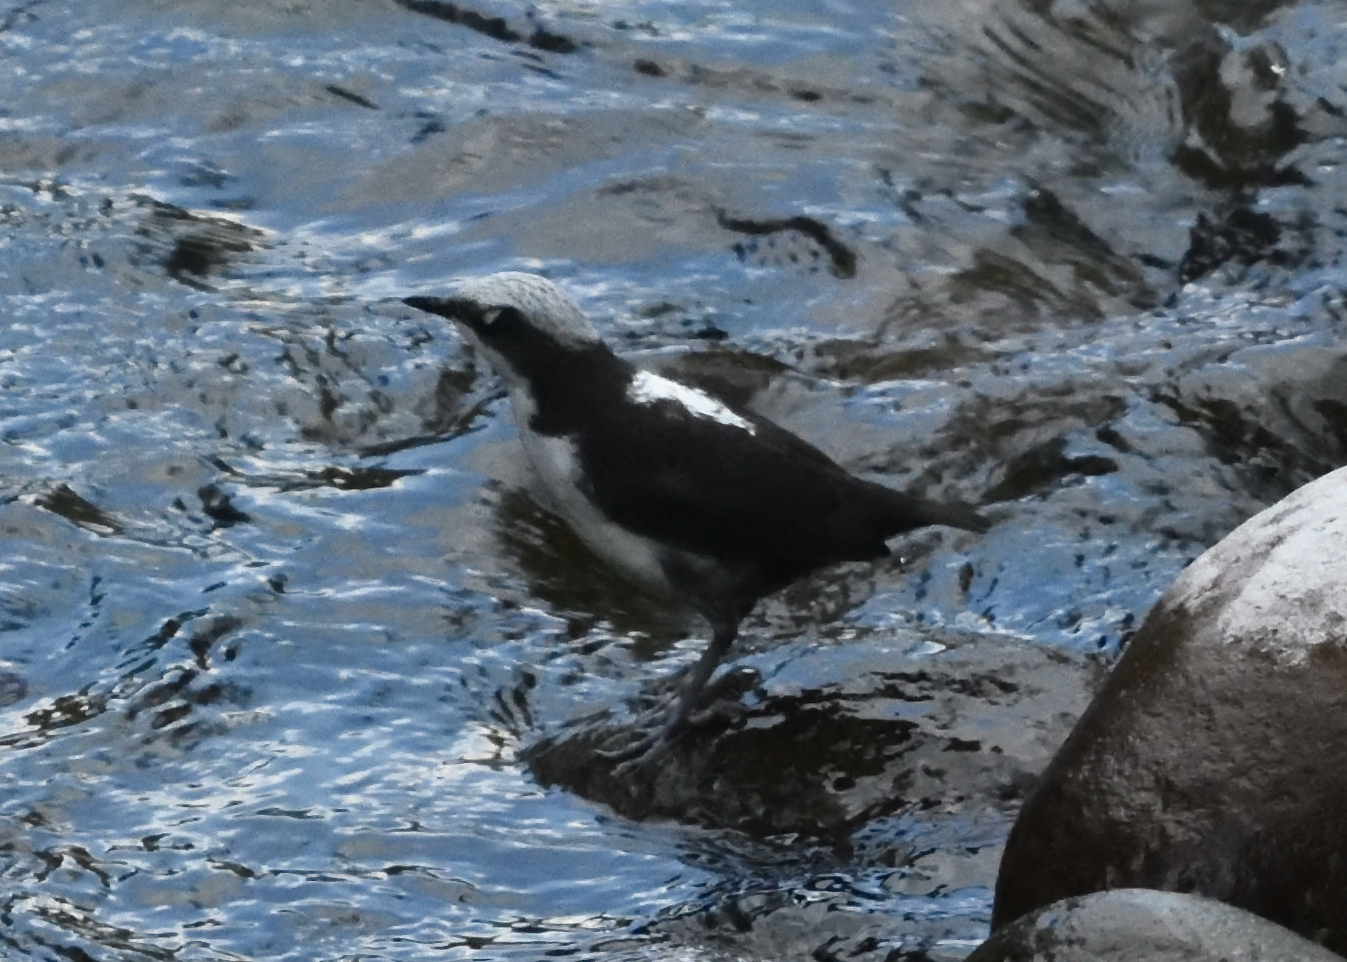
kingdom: Animalia
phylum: Chordata
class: Aves
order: Passeriformes
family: Cinclidae
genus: Cinclus
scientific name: Cinclus leucocephalus
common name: White-capped dipper
